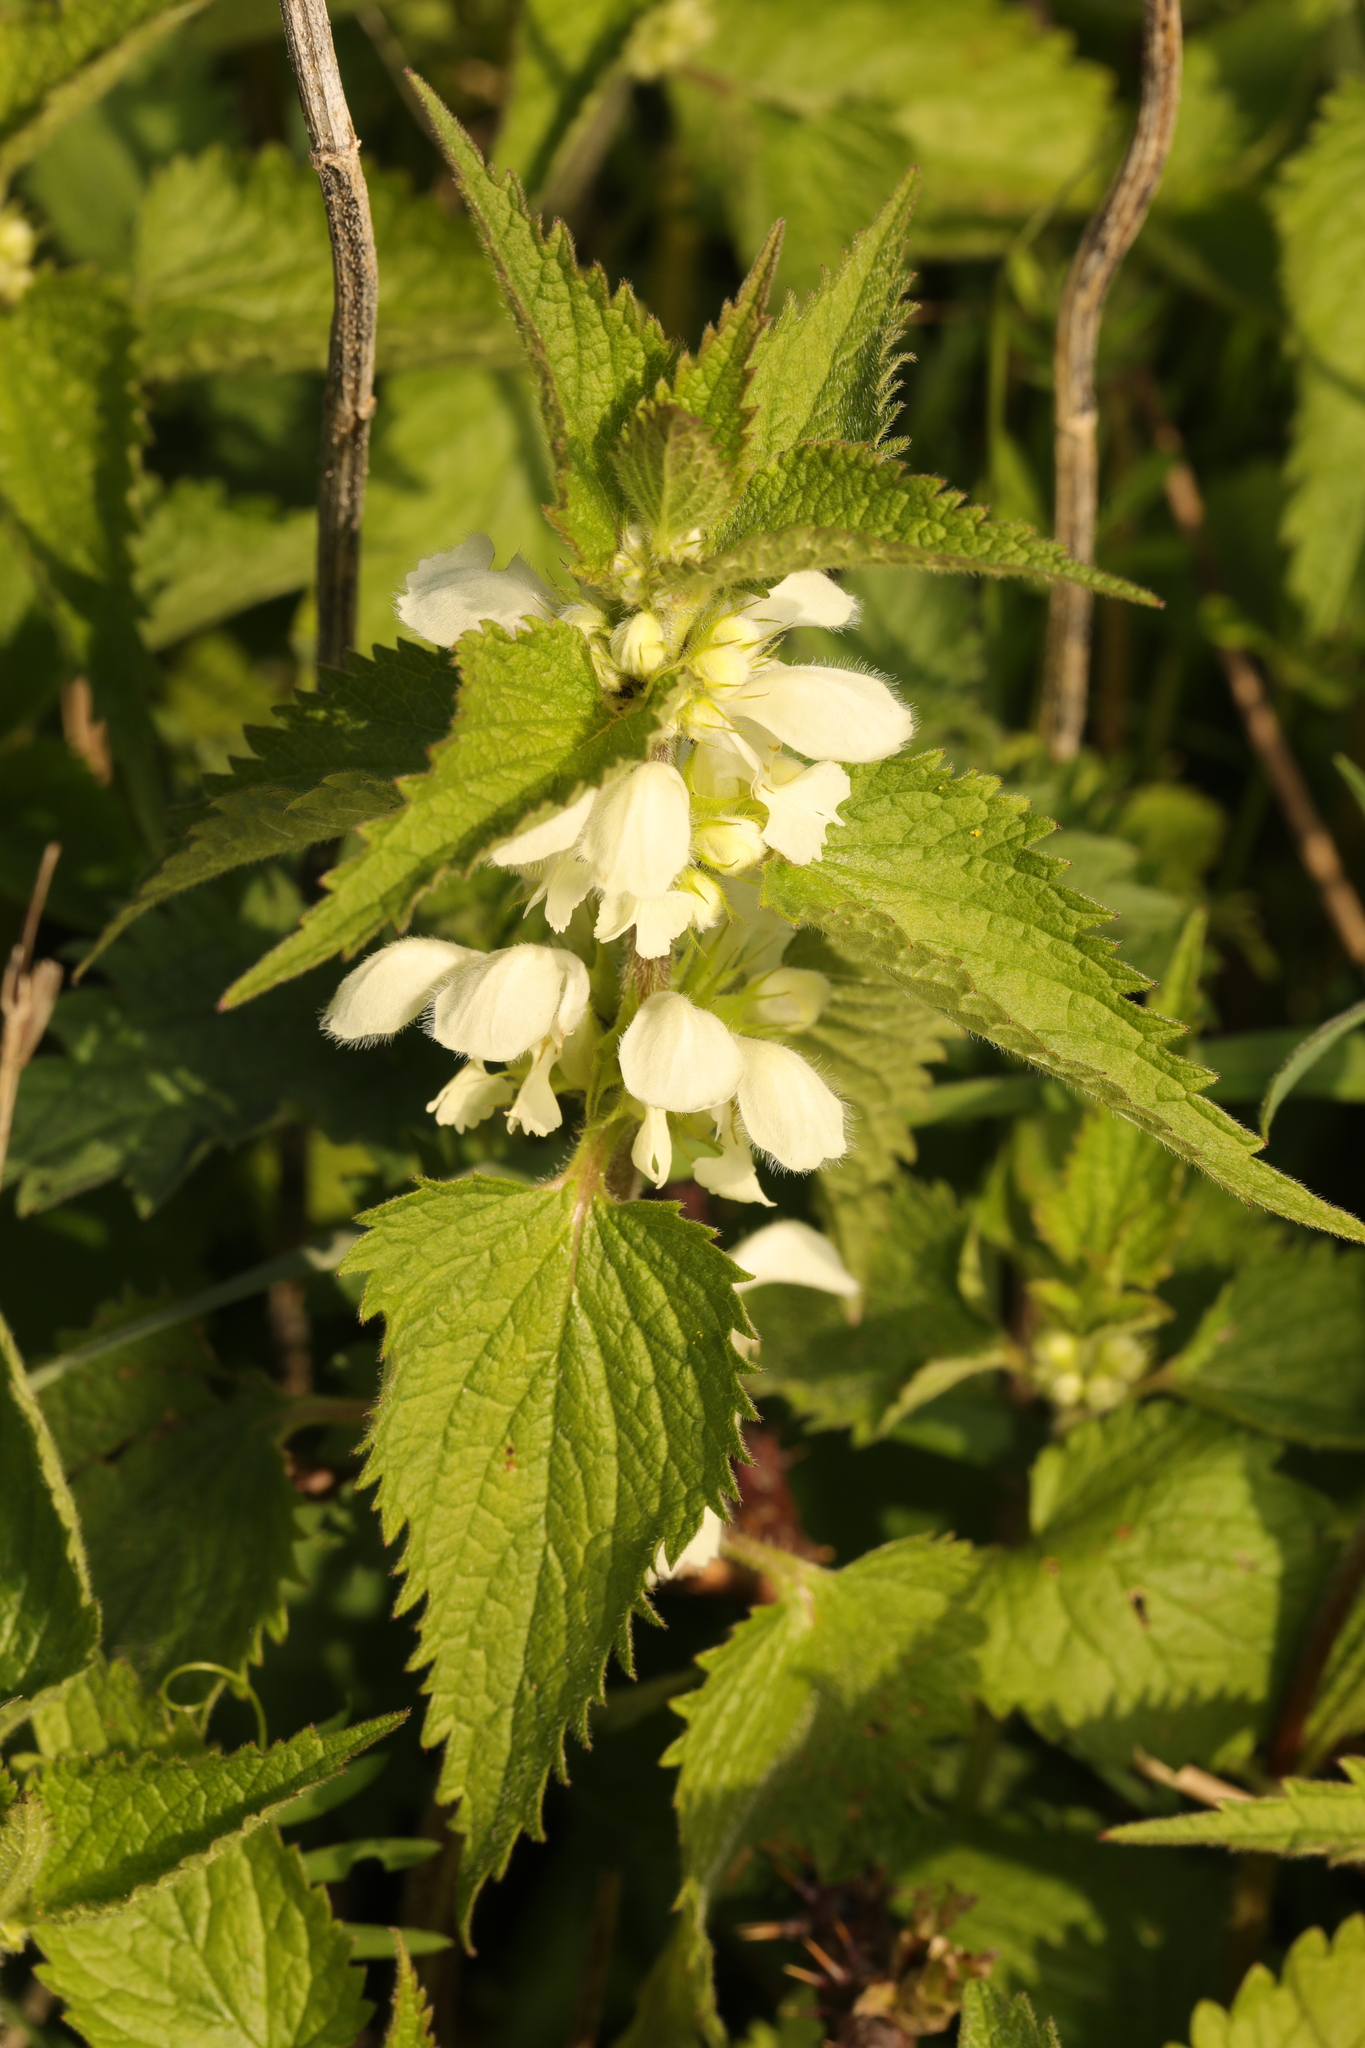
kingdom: Plantae
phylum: Tracheophyta
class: Magnoliopsida
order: Lamiales
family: Lamiaceae
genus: Lamium
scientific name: Lamium album
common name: White dead-nettle
